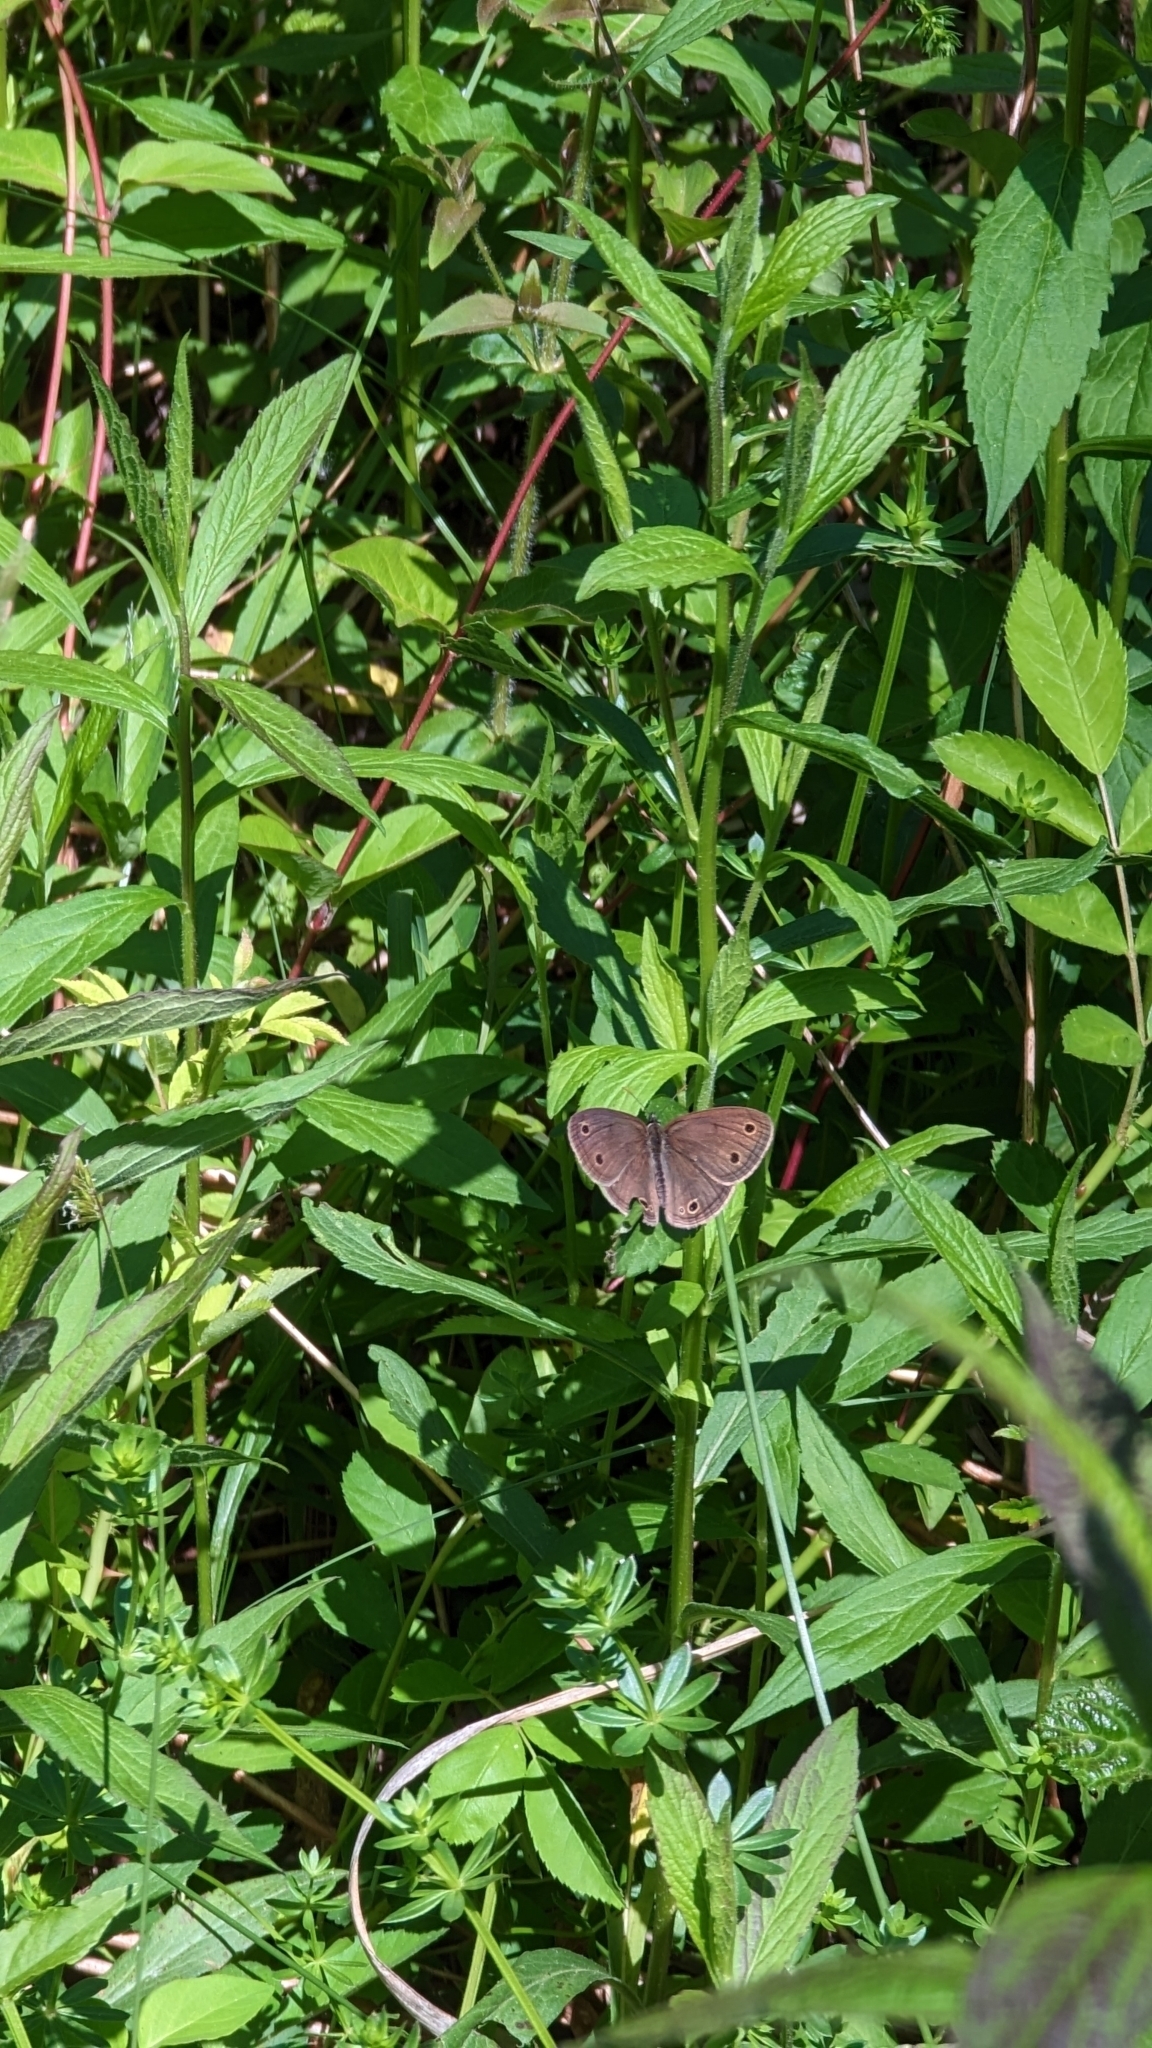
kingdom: Animalia
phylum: Arthropoda
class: Insecta
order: Lepidoptera
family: Nymphalidae
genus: Euptychia
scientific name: Euptychia cymela
